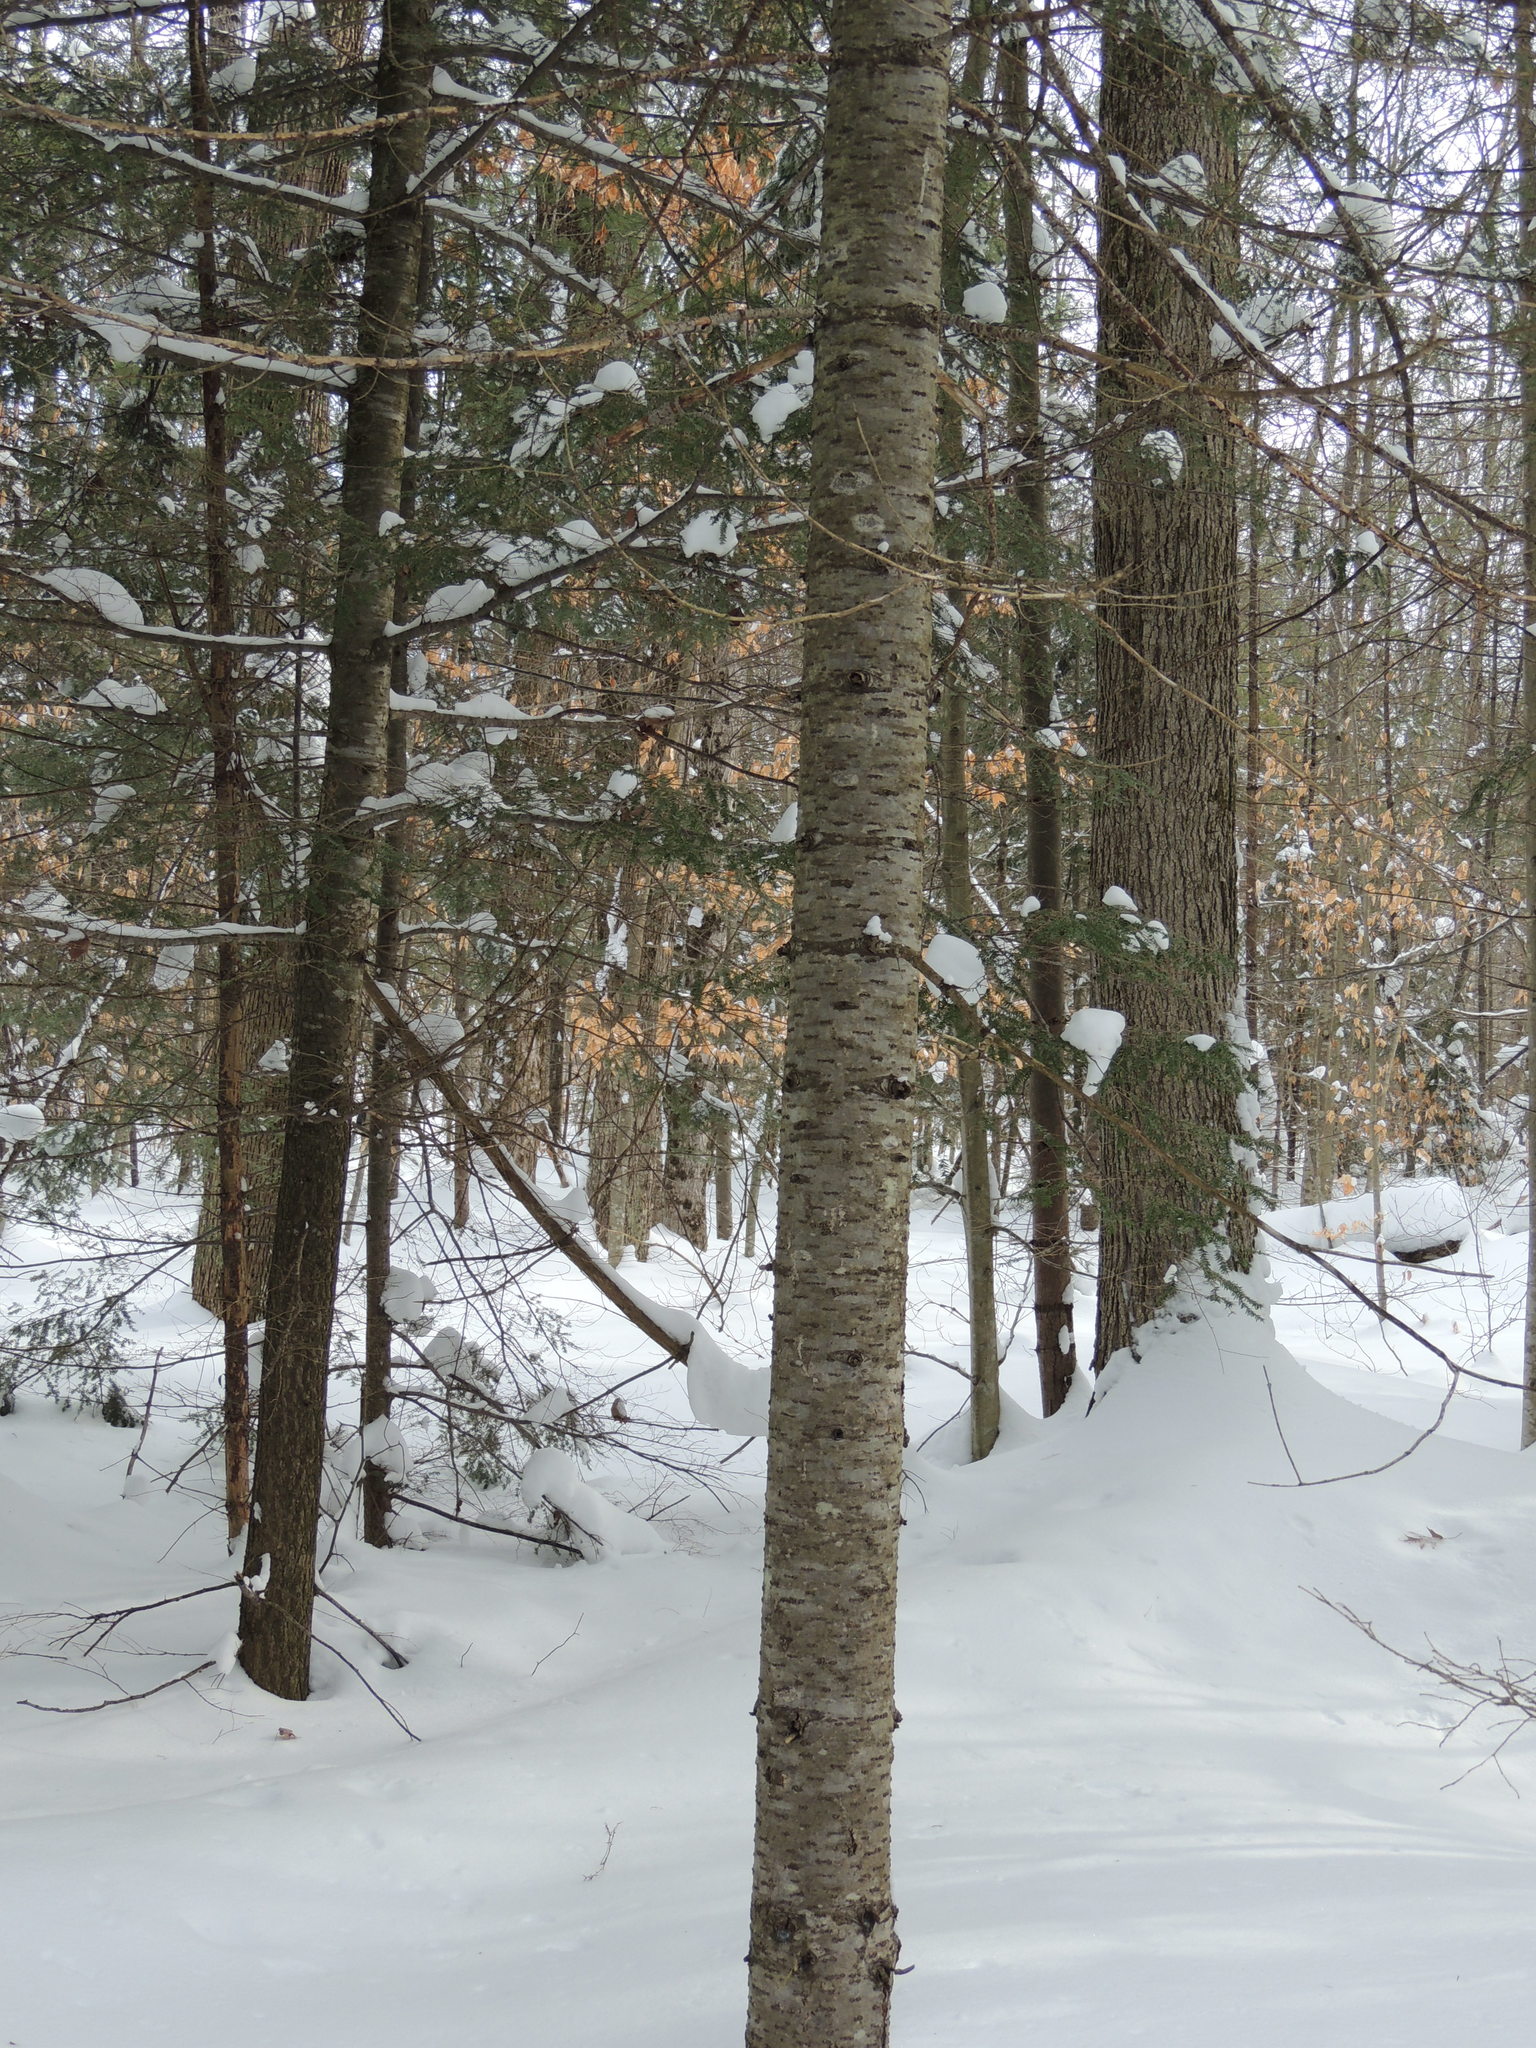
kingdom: Plantae
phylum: Tracheophyta
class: Pinopsida
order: Pinales
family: Pinaceae
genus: Abies
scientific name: Abies balsamea
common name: Balsam fir
